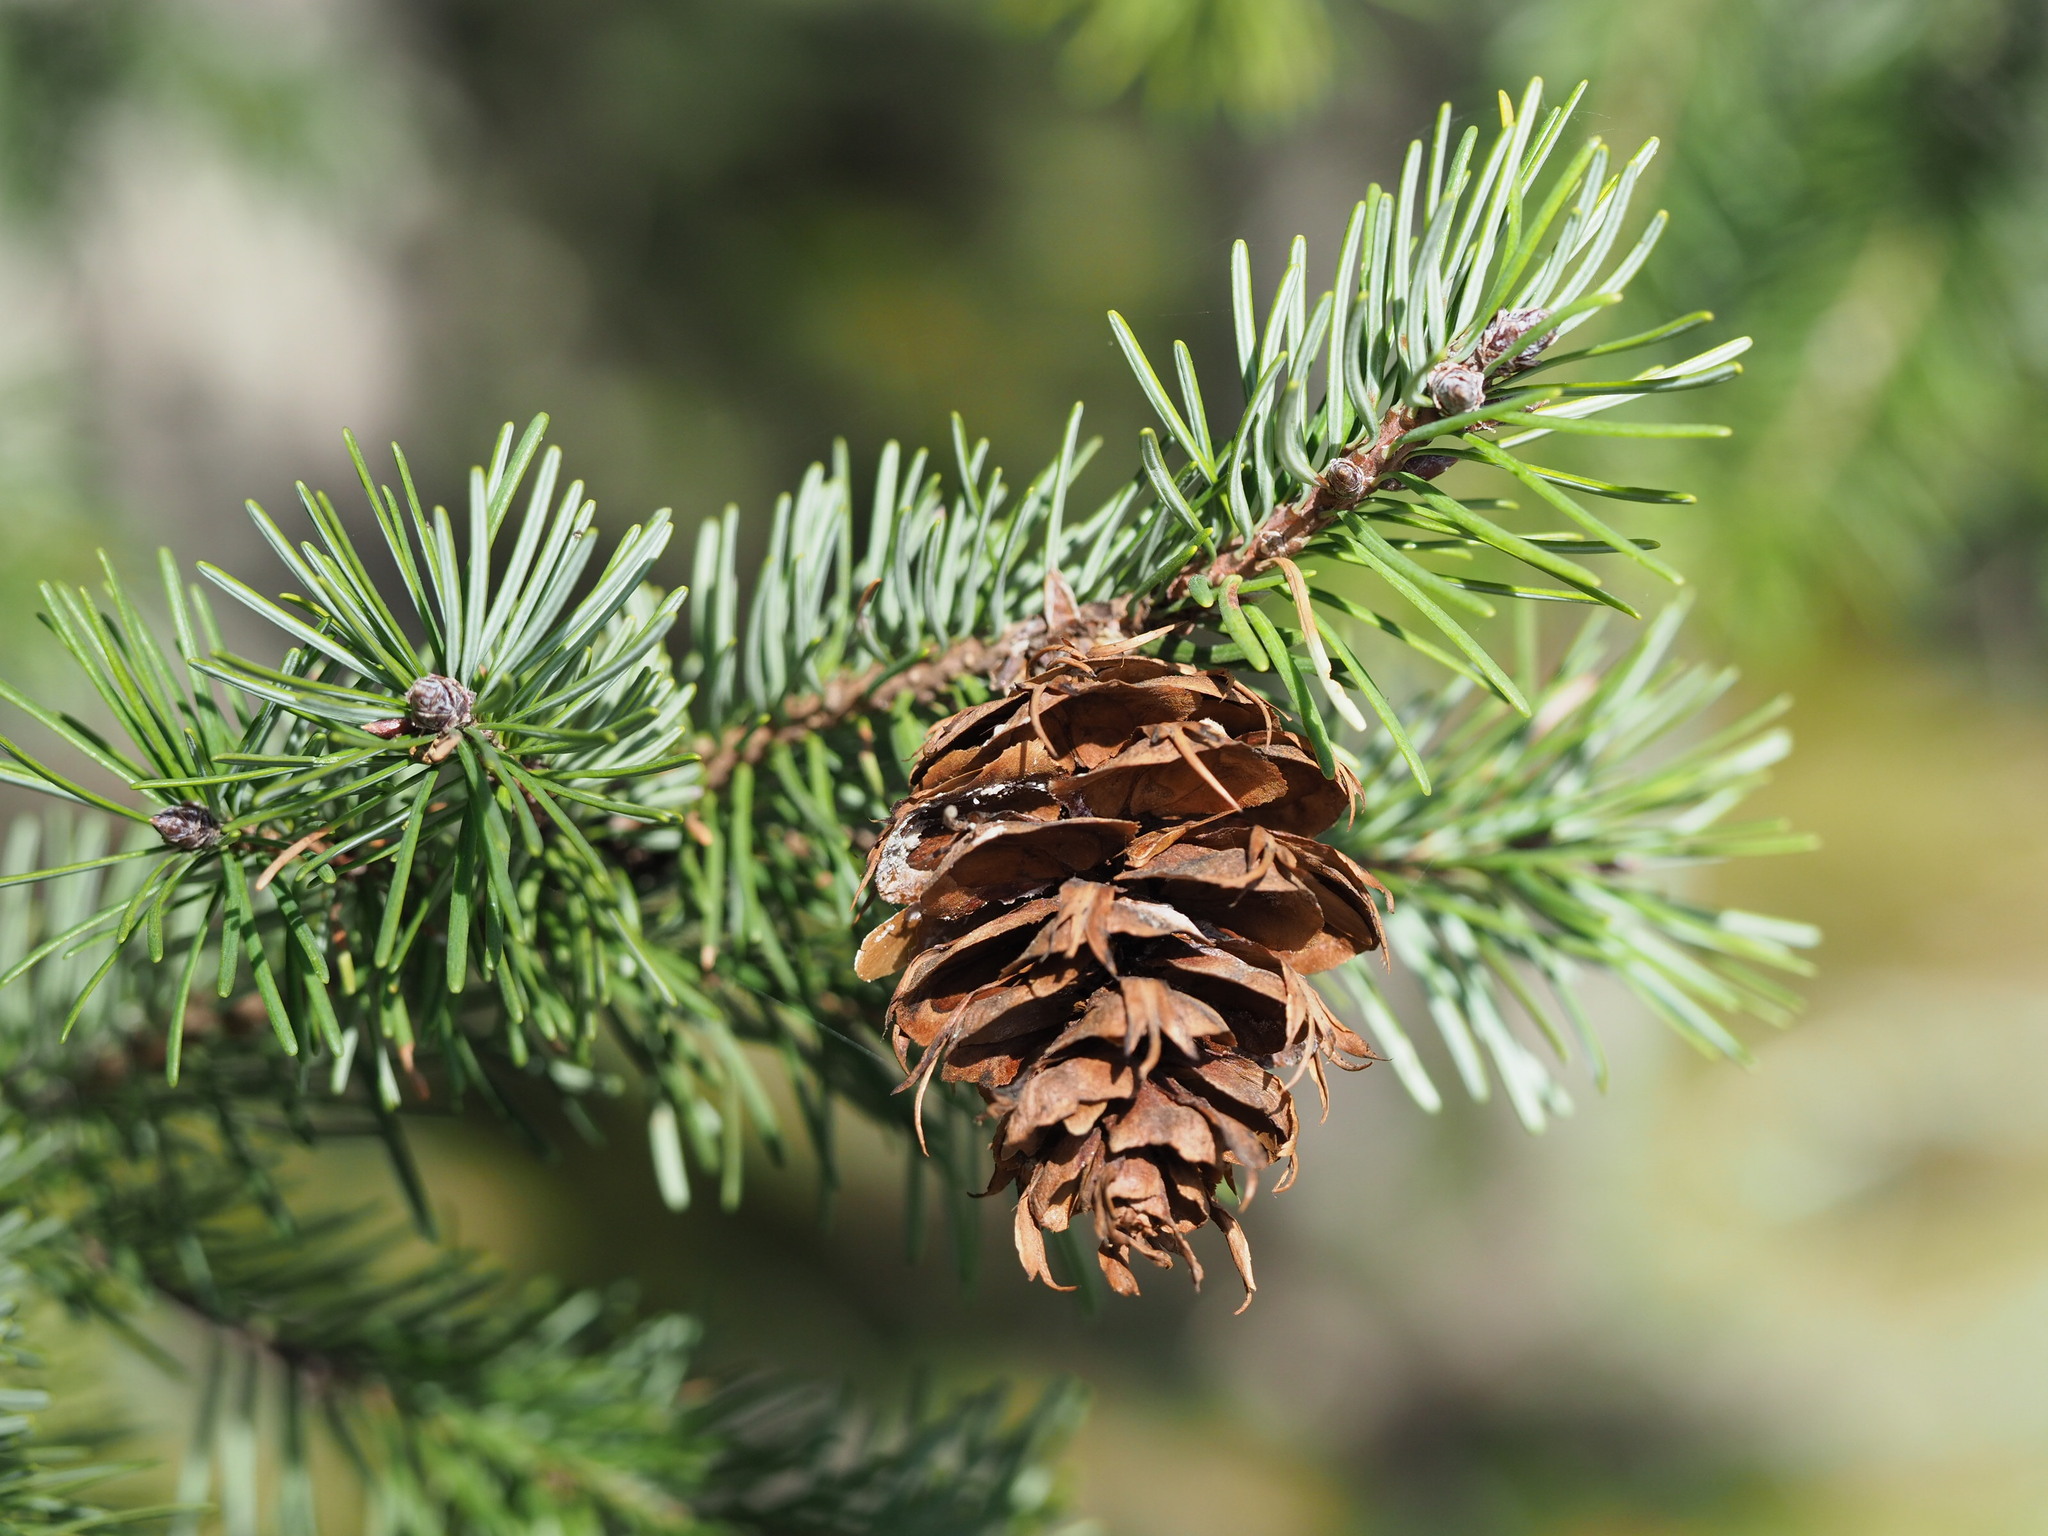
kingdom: Plantae
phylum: Tracheophyta
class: Pinopsida
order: Pinales
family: Pinaceae
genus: Pseudotsuga
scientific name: Pseudotsuga menziesii
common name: Douglas fir
